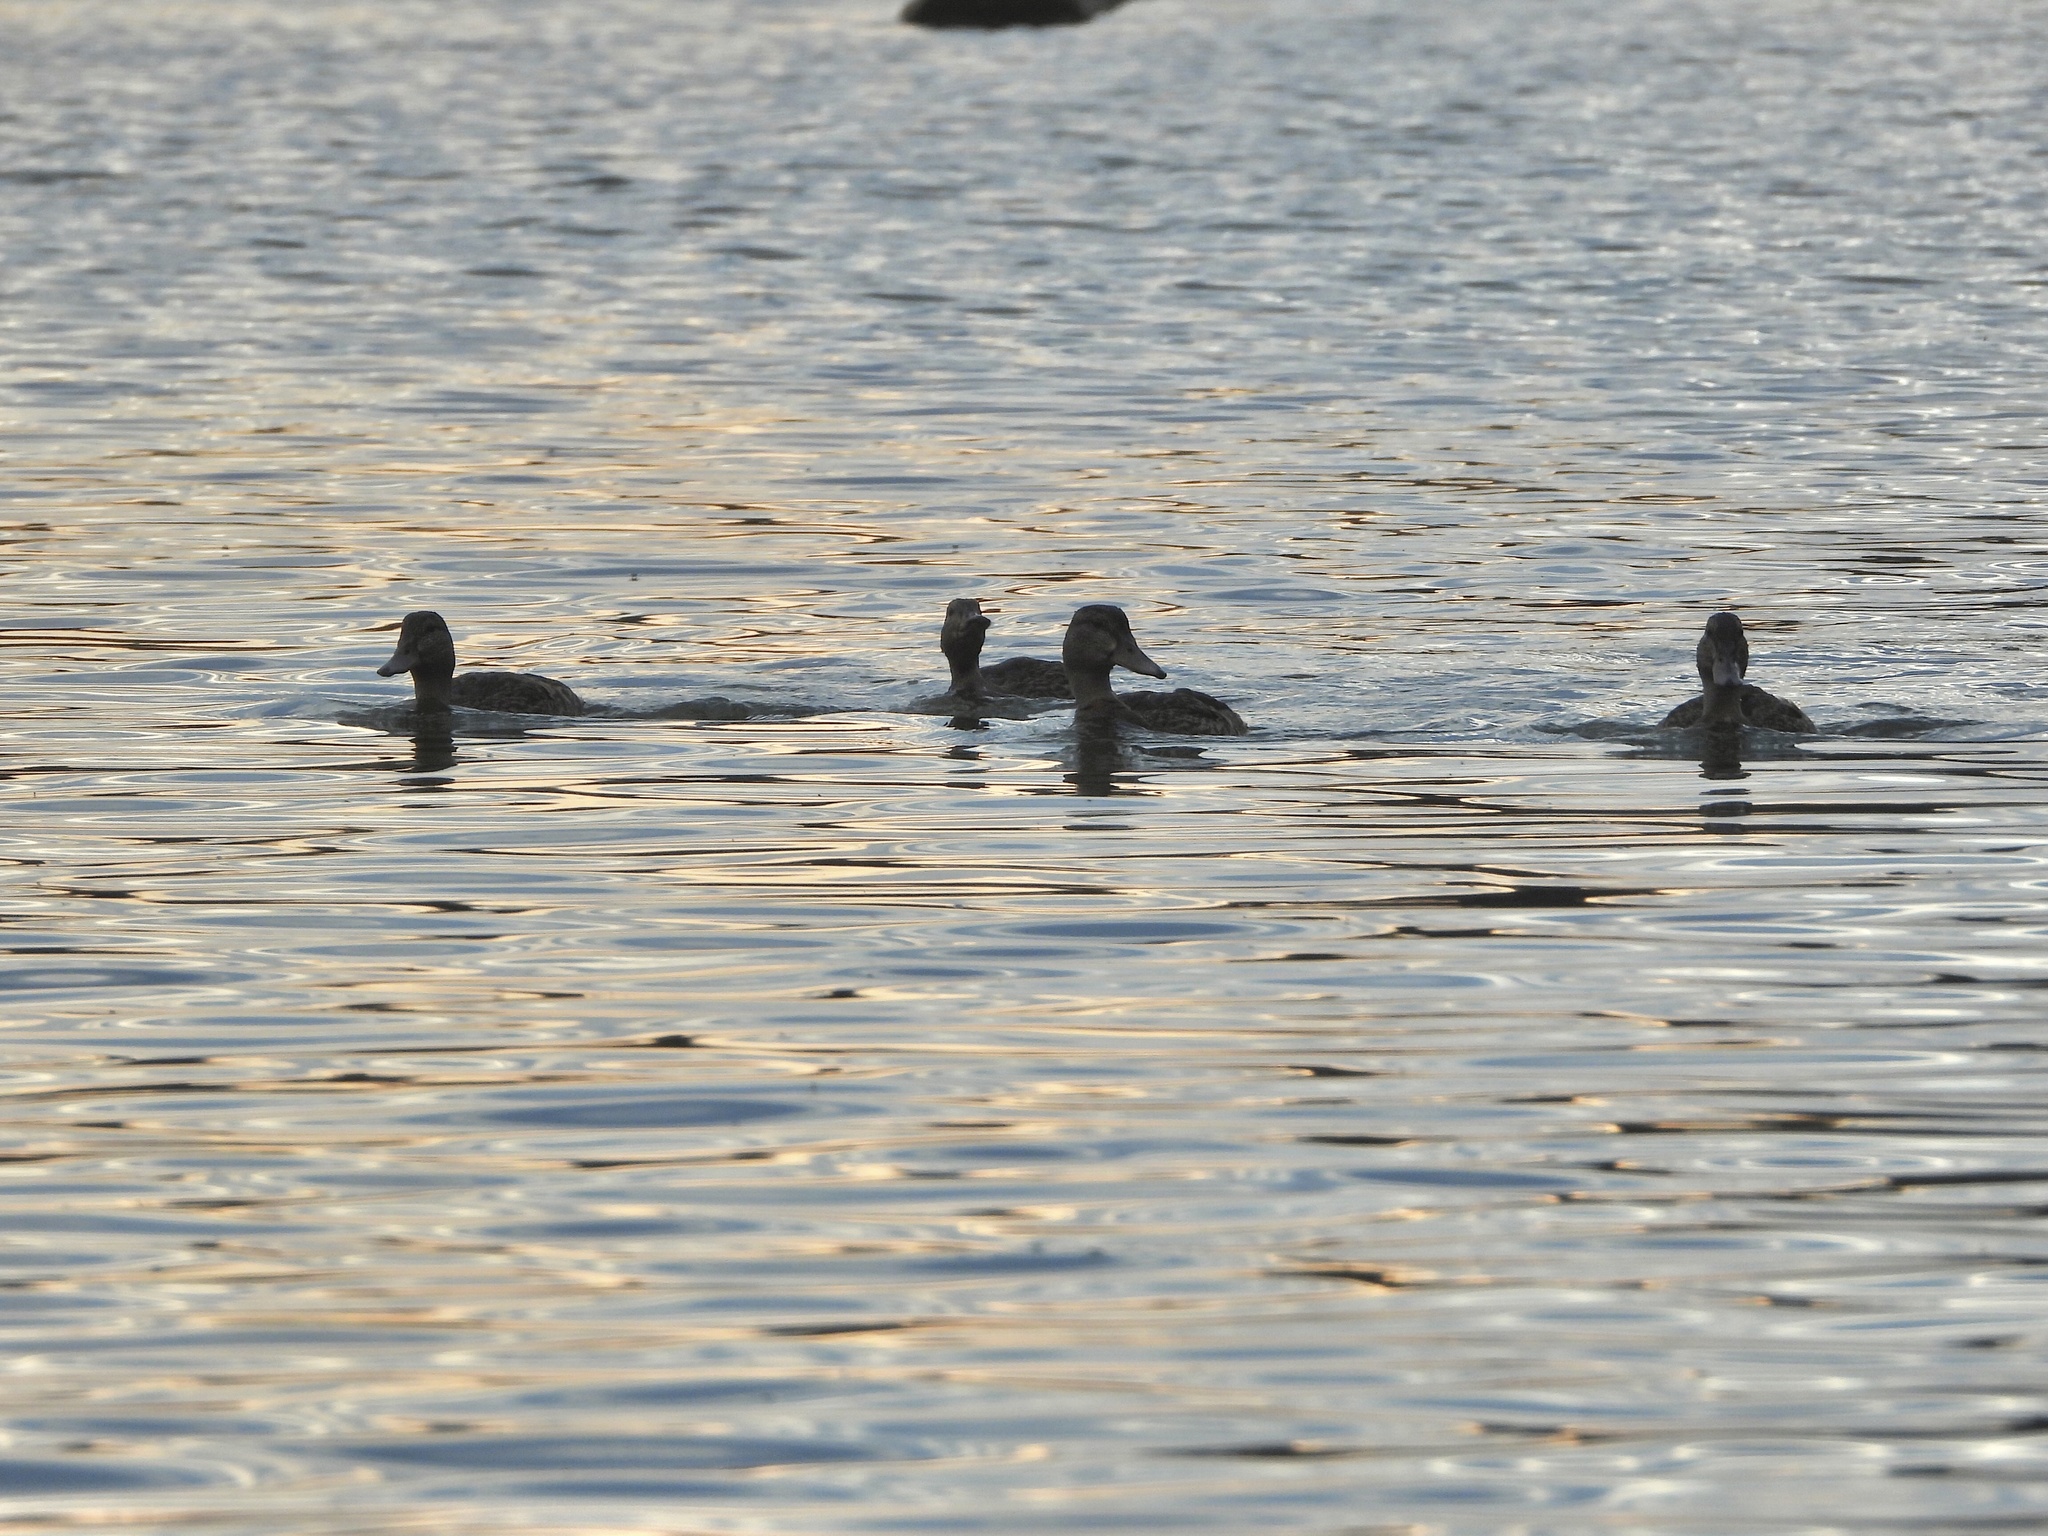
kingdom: Animalia
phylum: Chordata
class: Aves
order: Anseriformes
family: Anatidae
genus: Anas
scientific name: Anas platyrhynchos
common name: Mallard
